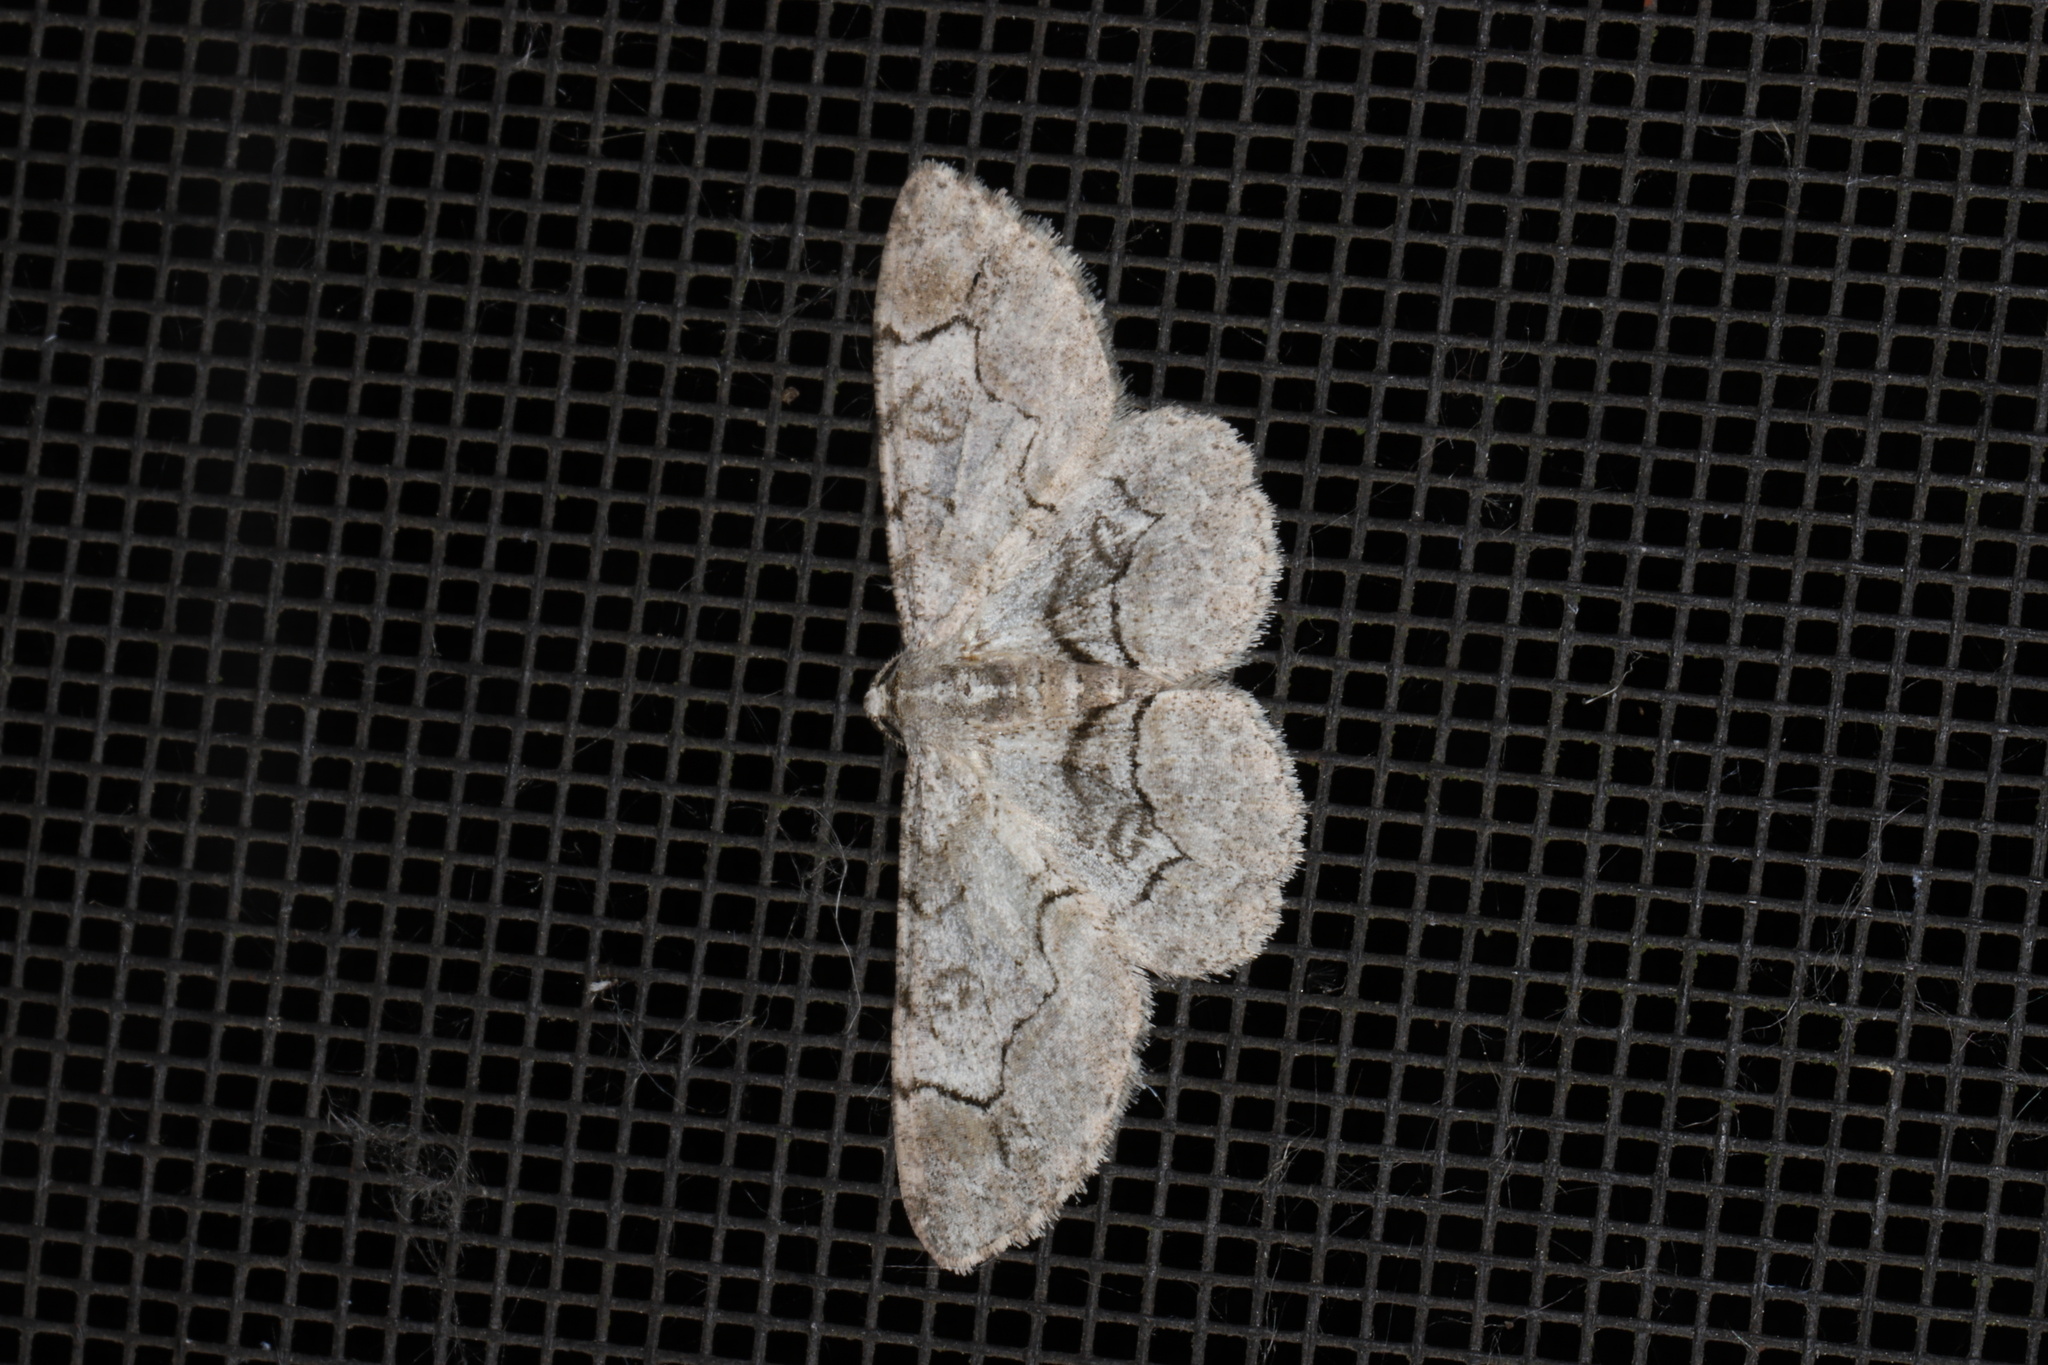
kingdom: Animalia
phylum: Arthropoda
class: Insecta
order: Lepidoptera
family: Geometridae
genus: Iridopsis
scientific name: Iridopsis larvaria
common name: Bent-line gray
